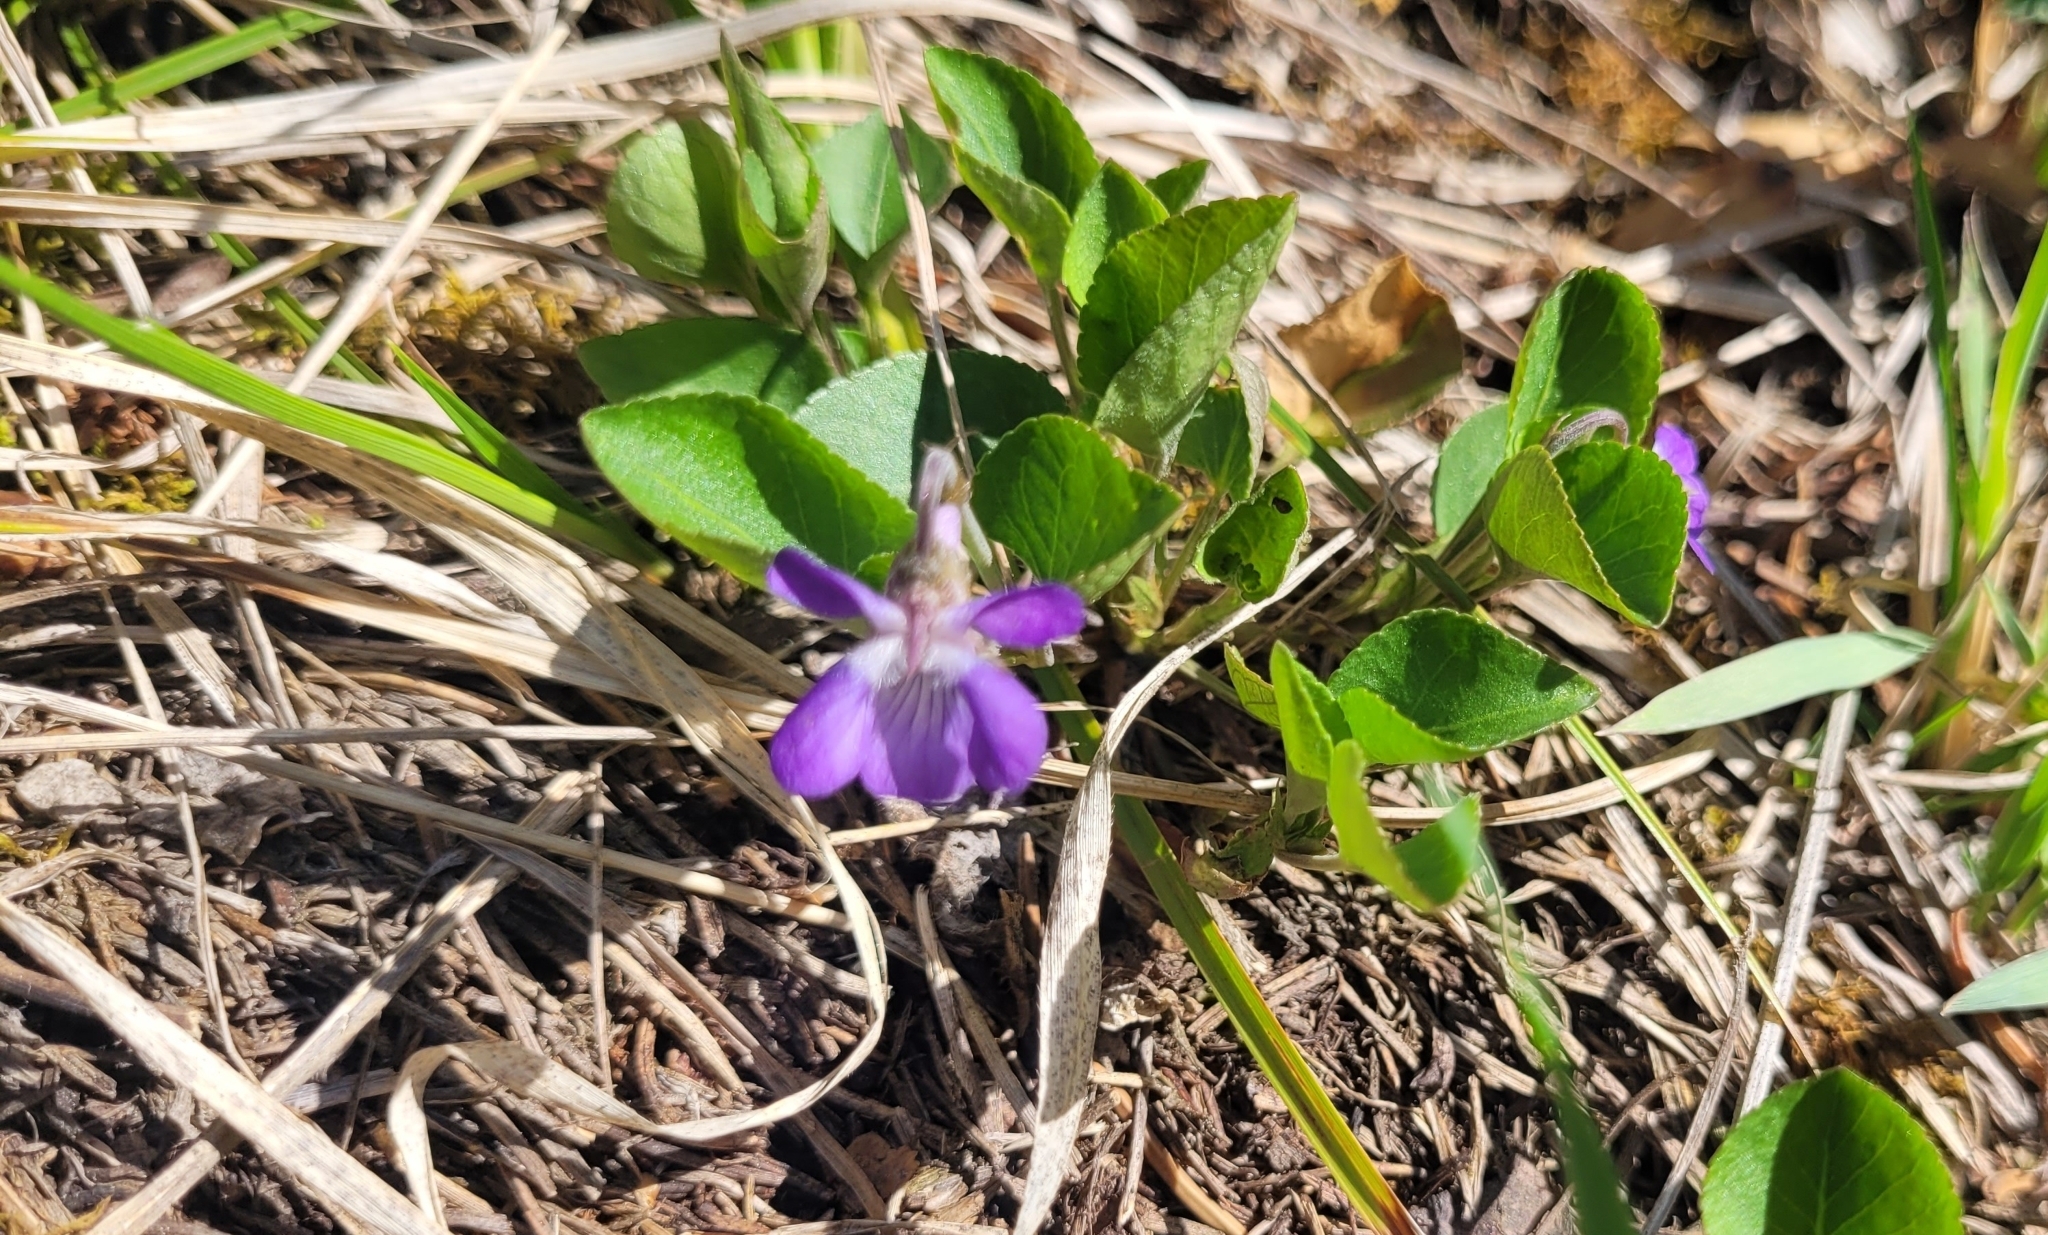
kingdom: Plantae
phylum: Tracheophyta
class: Magnoliopsida
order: Malpighiales
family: Violaceae
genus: Viola
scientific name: Viola rupestris
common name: Teesdale violet
